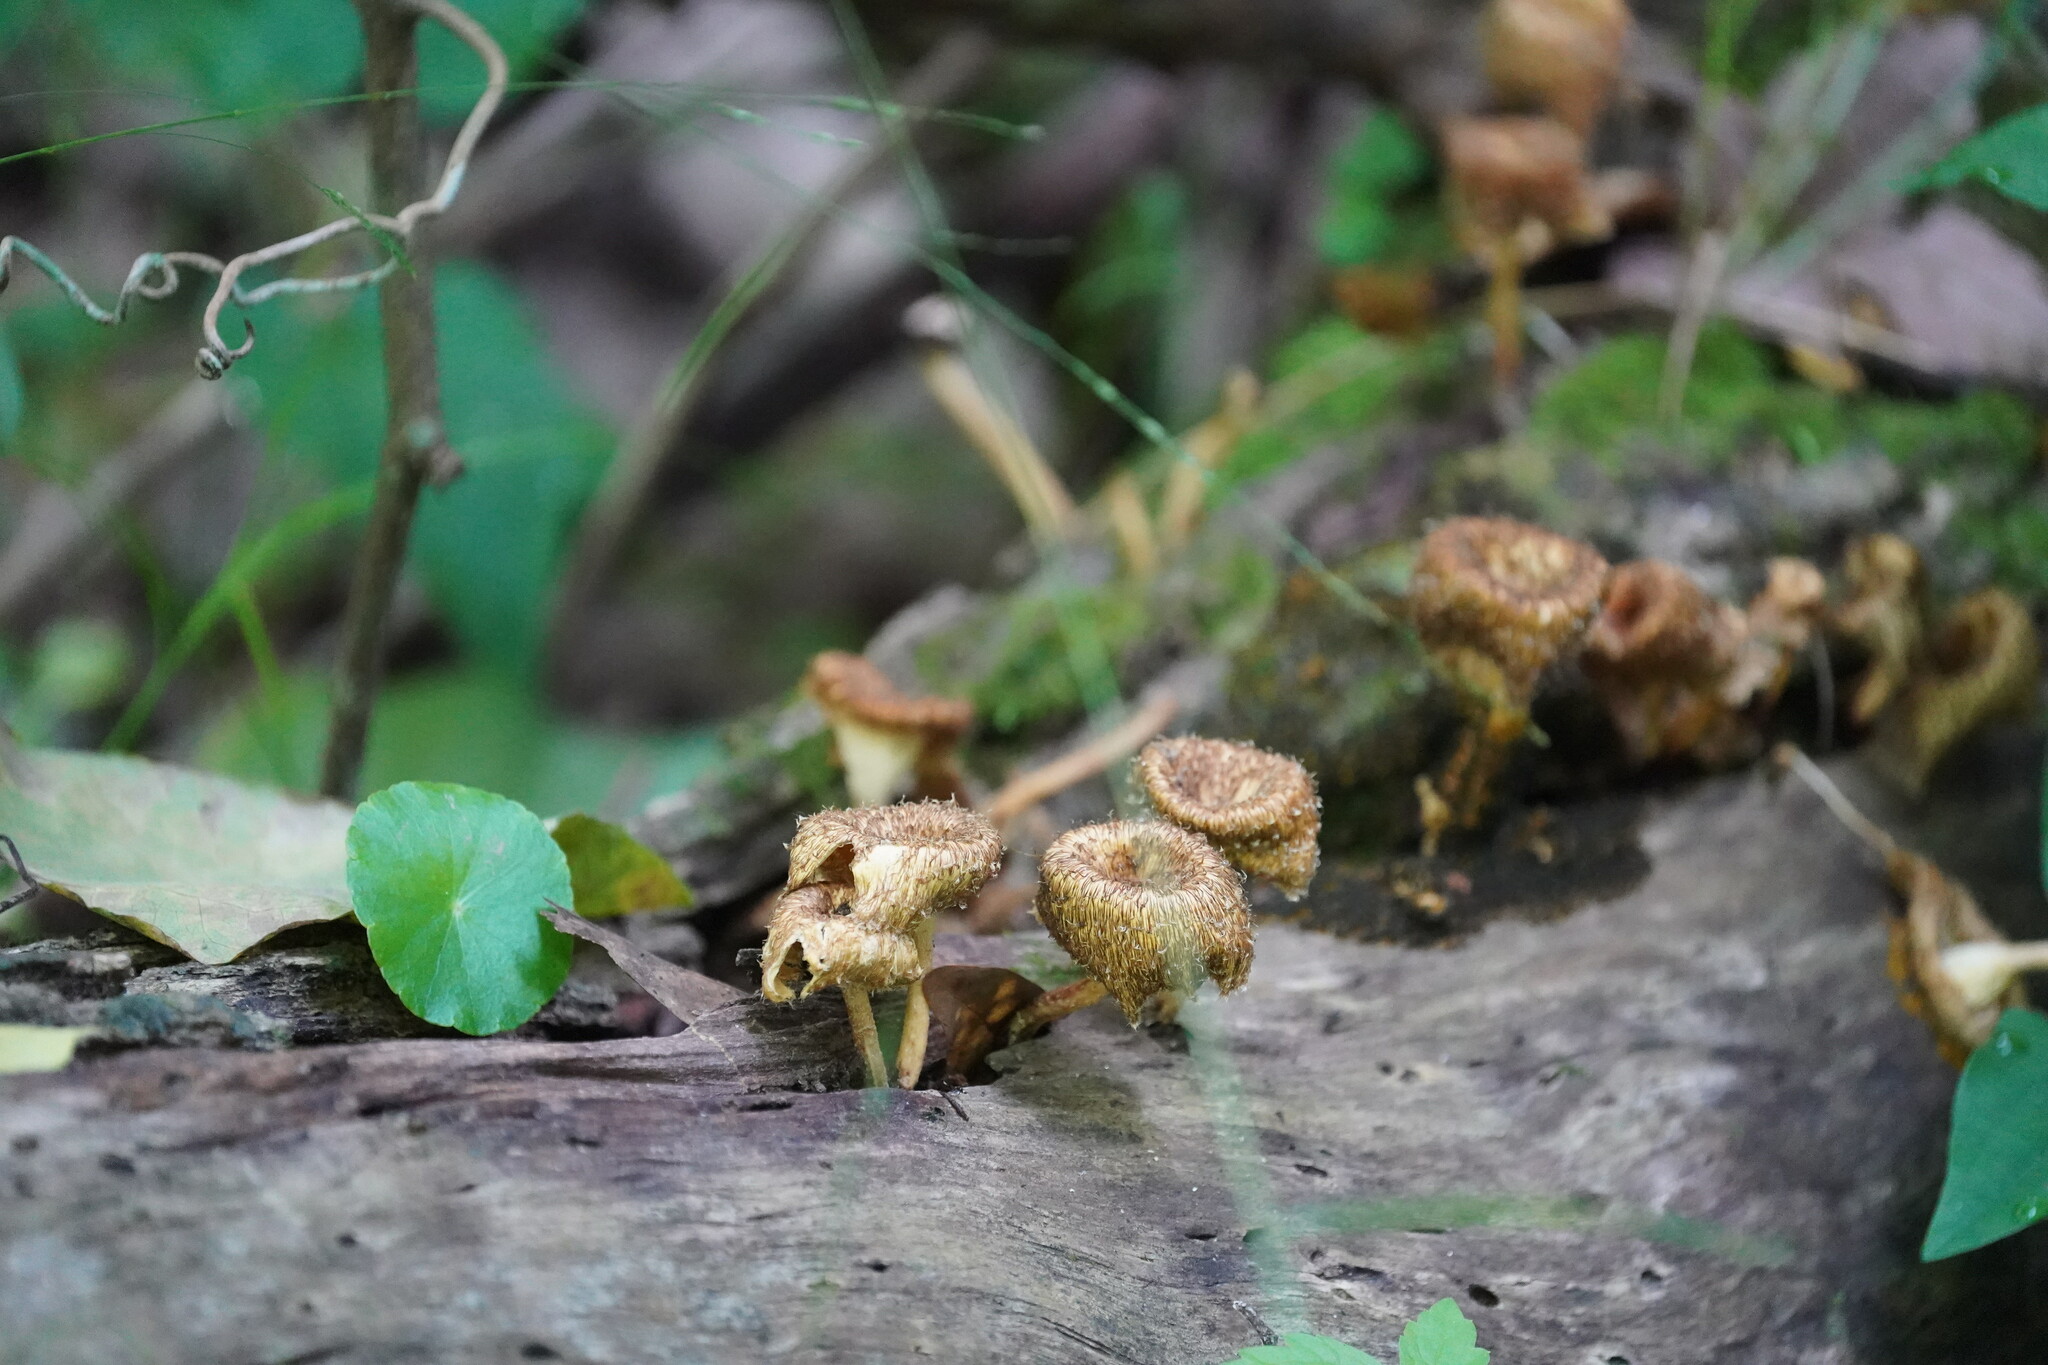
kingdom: Fungi
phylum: Basidiomycota
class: Agaricomycetes
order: Polyporales
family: Polyporaceae
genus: Lentinus
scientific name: Lentinus crinitus
